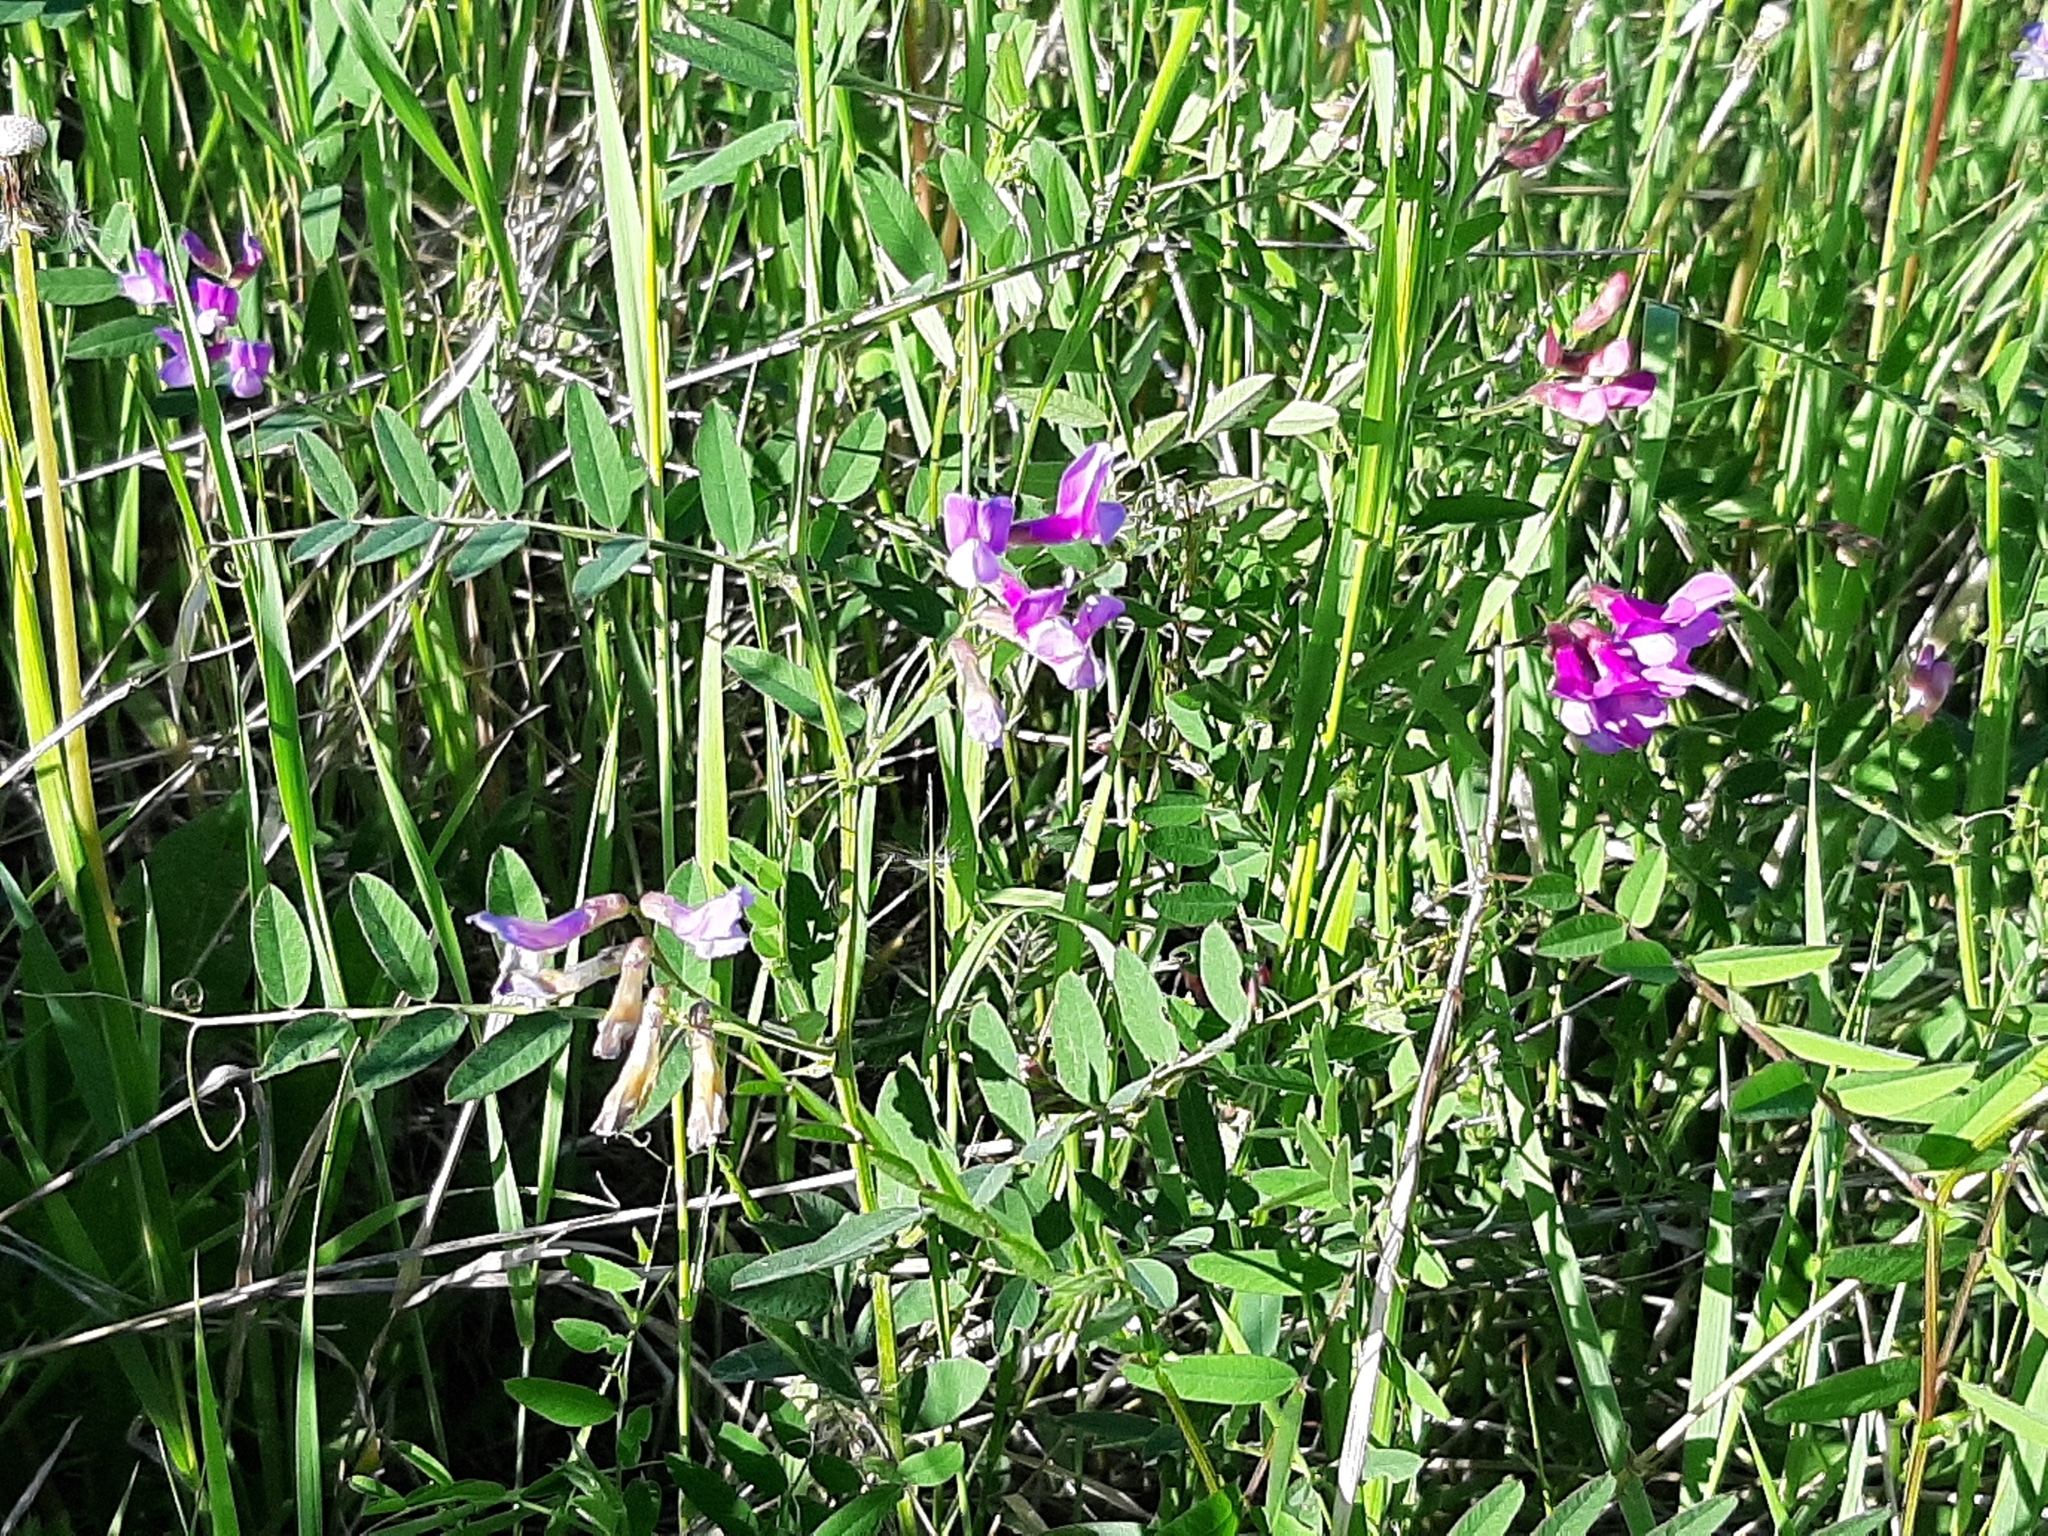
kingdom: Plantae
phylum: Tracheophyta
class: Magnoliopsida
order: Fabales
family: Fabaceae
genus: Vicia
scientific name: Vicia americana
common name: American vetch
